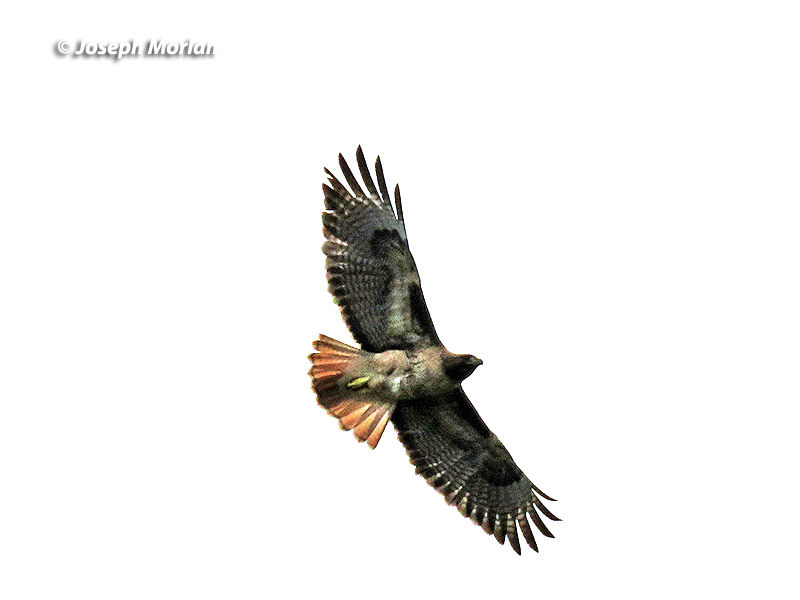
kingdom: Animalia
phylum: Chordata
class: Aves
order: Accipitriformes
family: Accipitridae
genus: Buteo
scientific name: Buteo jamaicensis
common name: Red-tailed hawk
